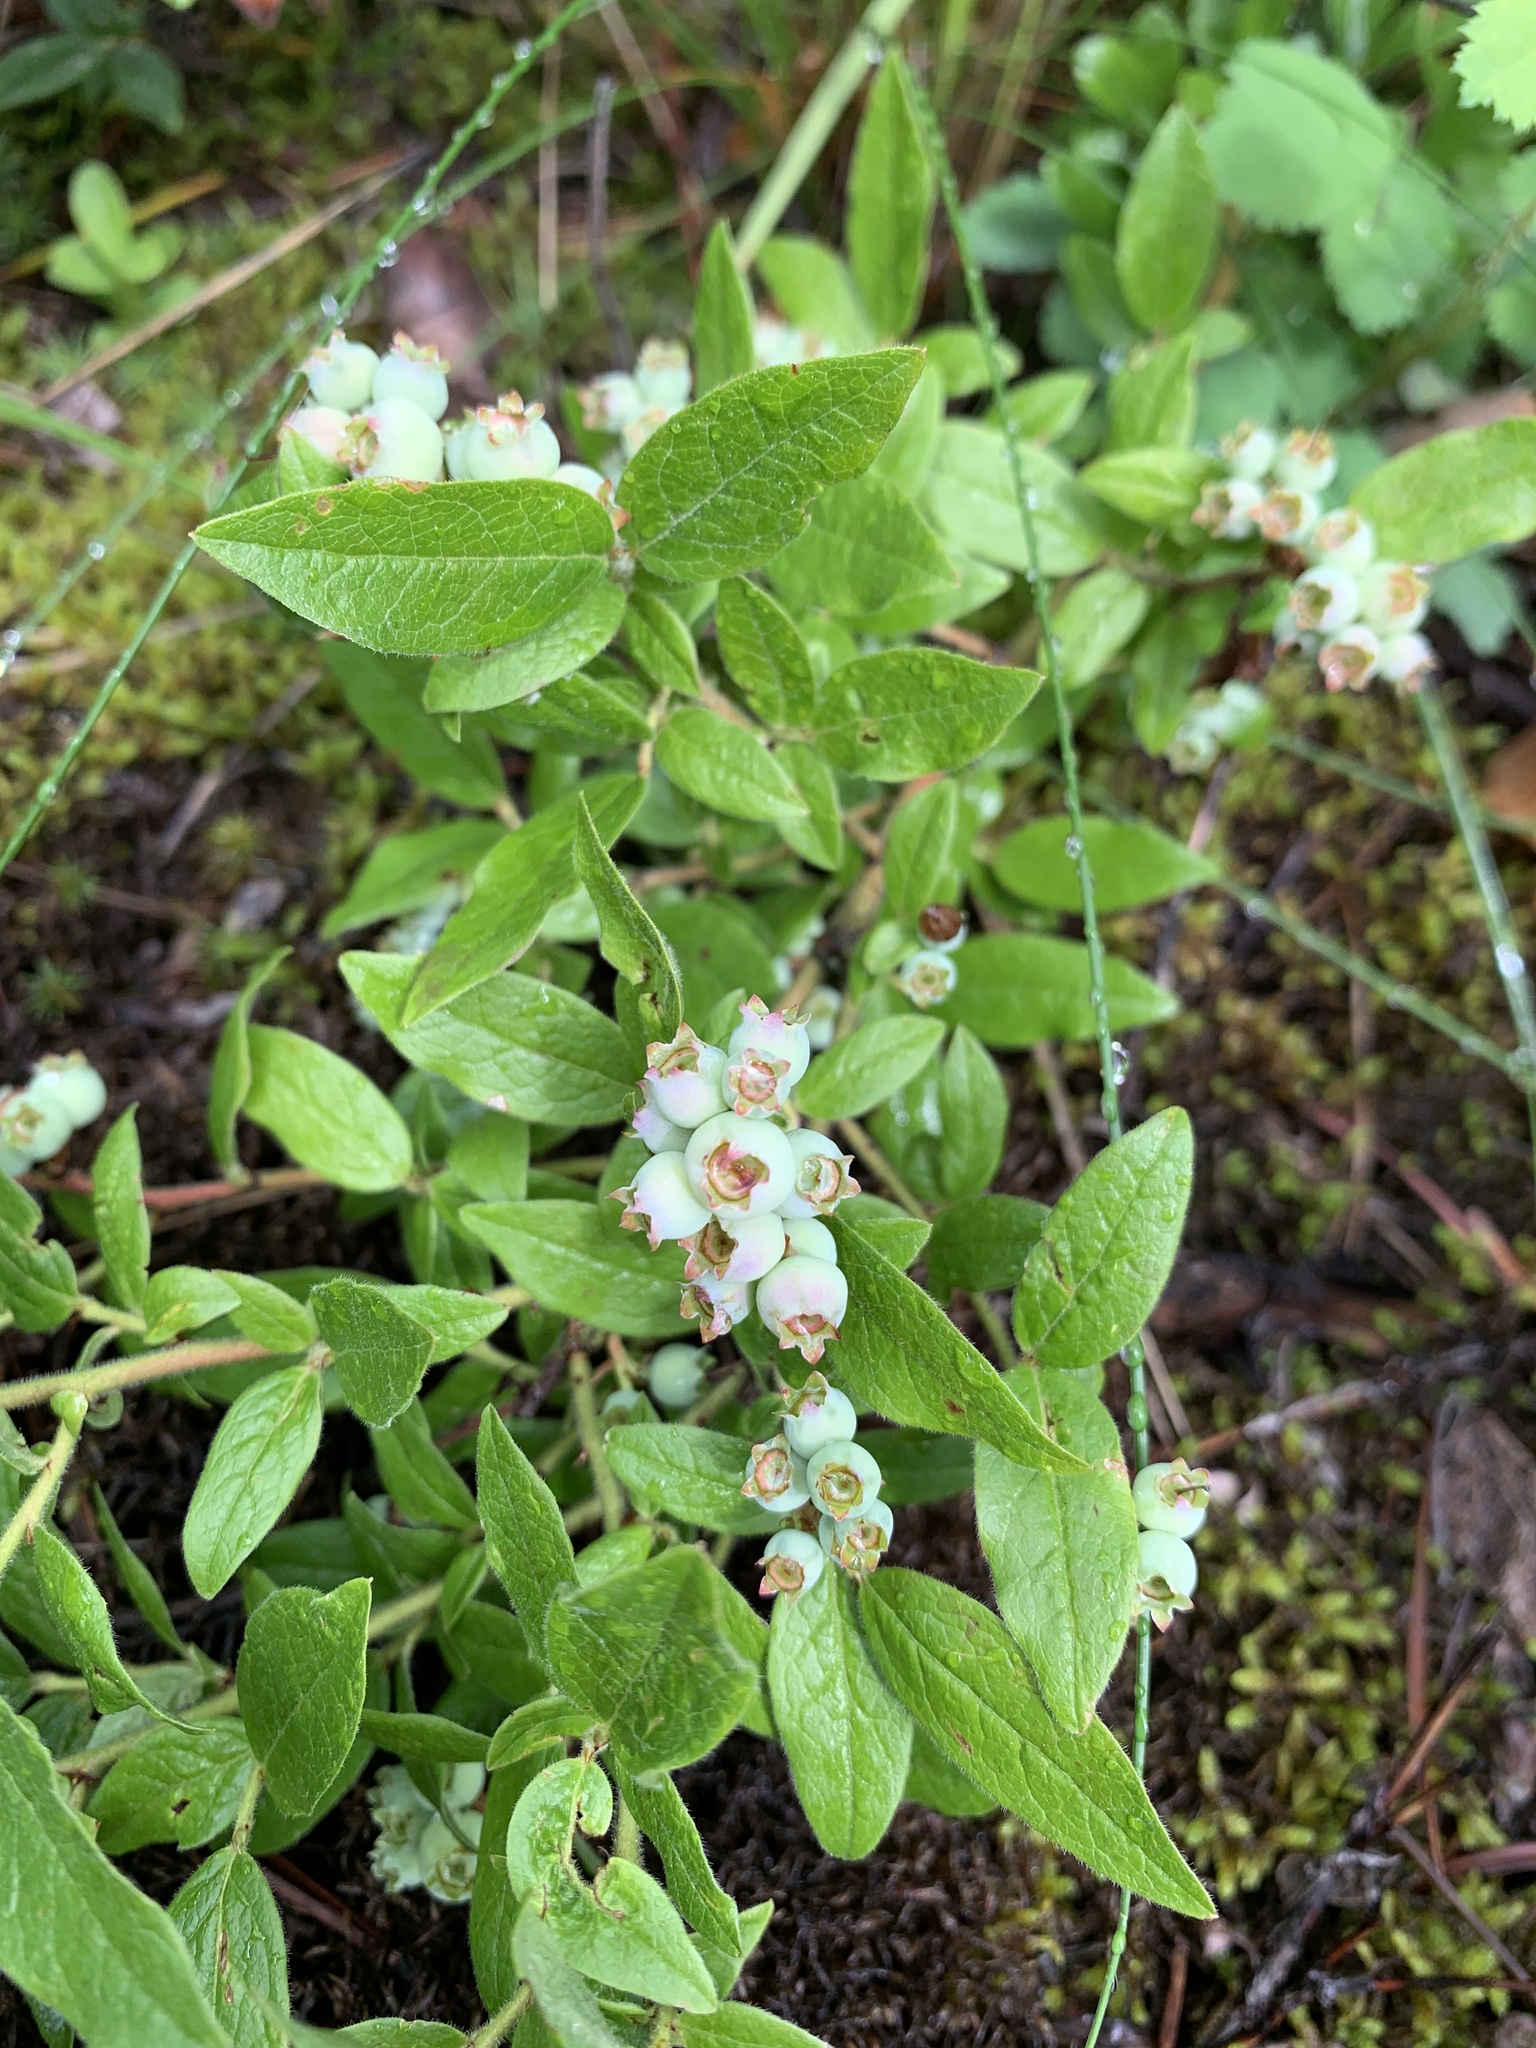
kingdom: Plantae
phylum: Tracheophyta
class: Magnoliopsida
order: Ericales
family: Ericaceae
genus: Vaccinium
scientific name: Vaccinium myrtilloides
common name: Canada blueberry
